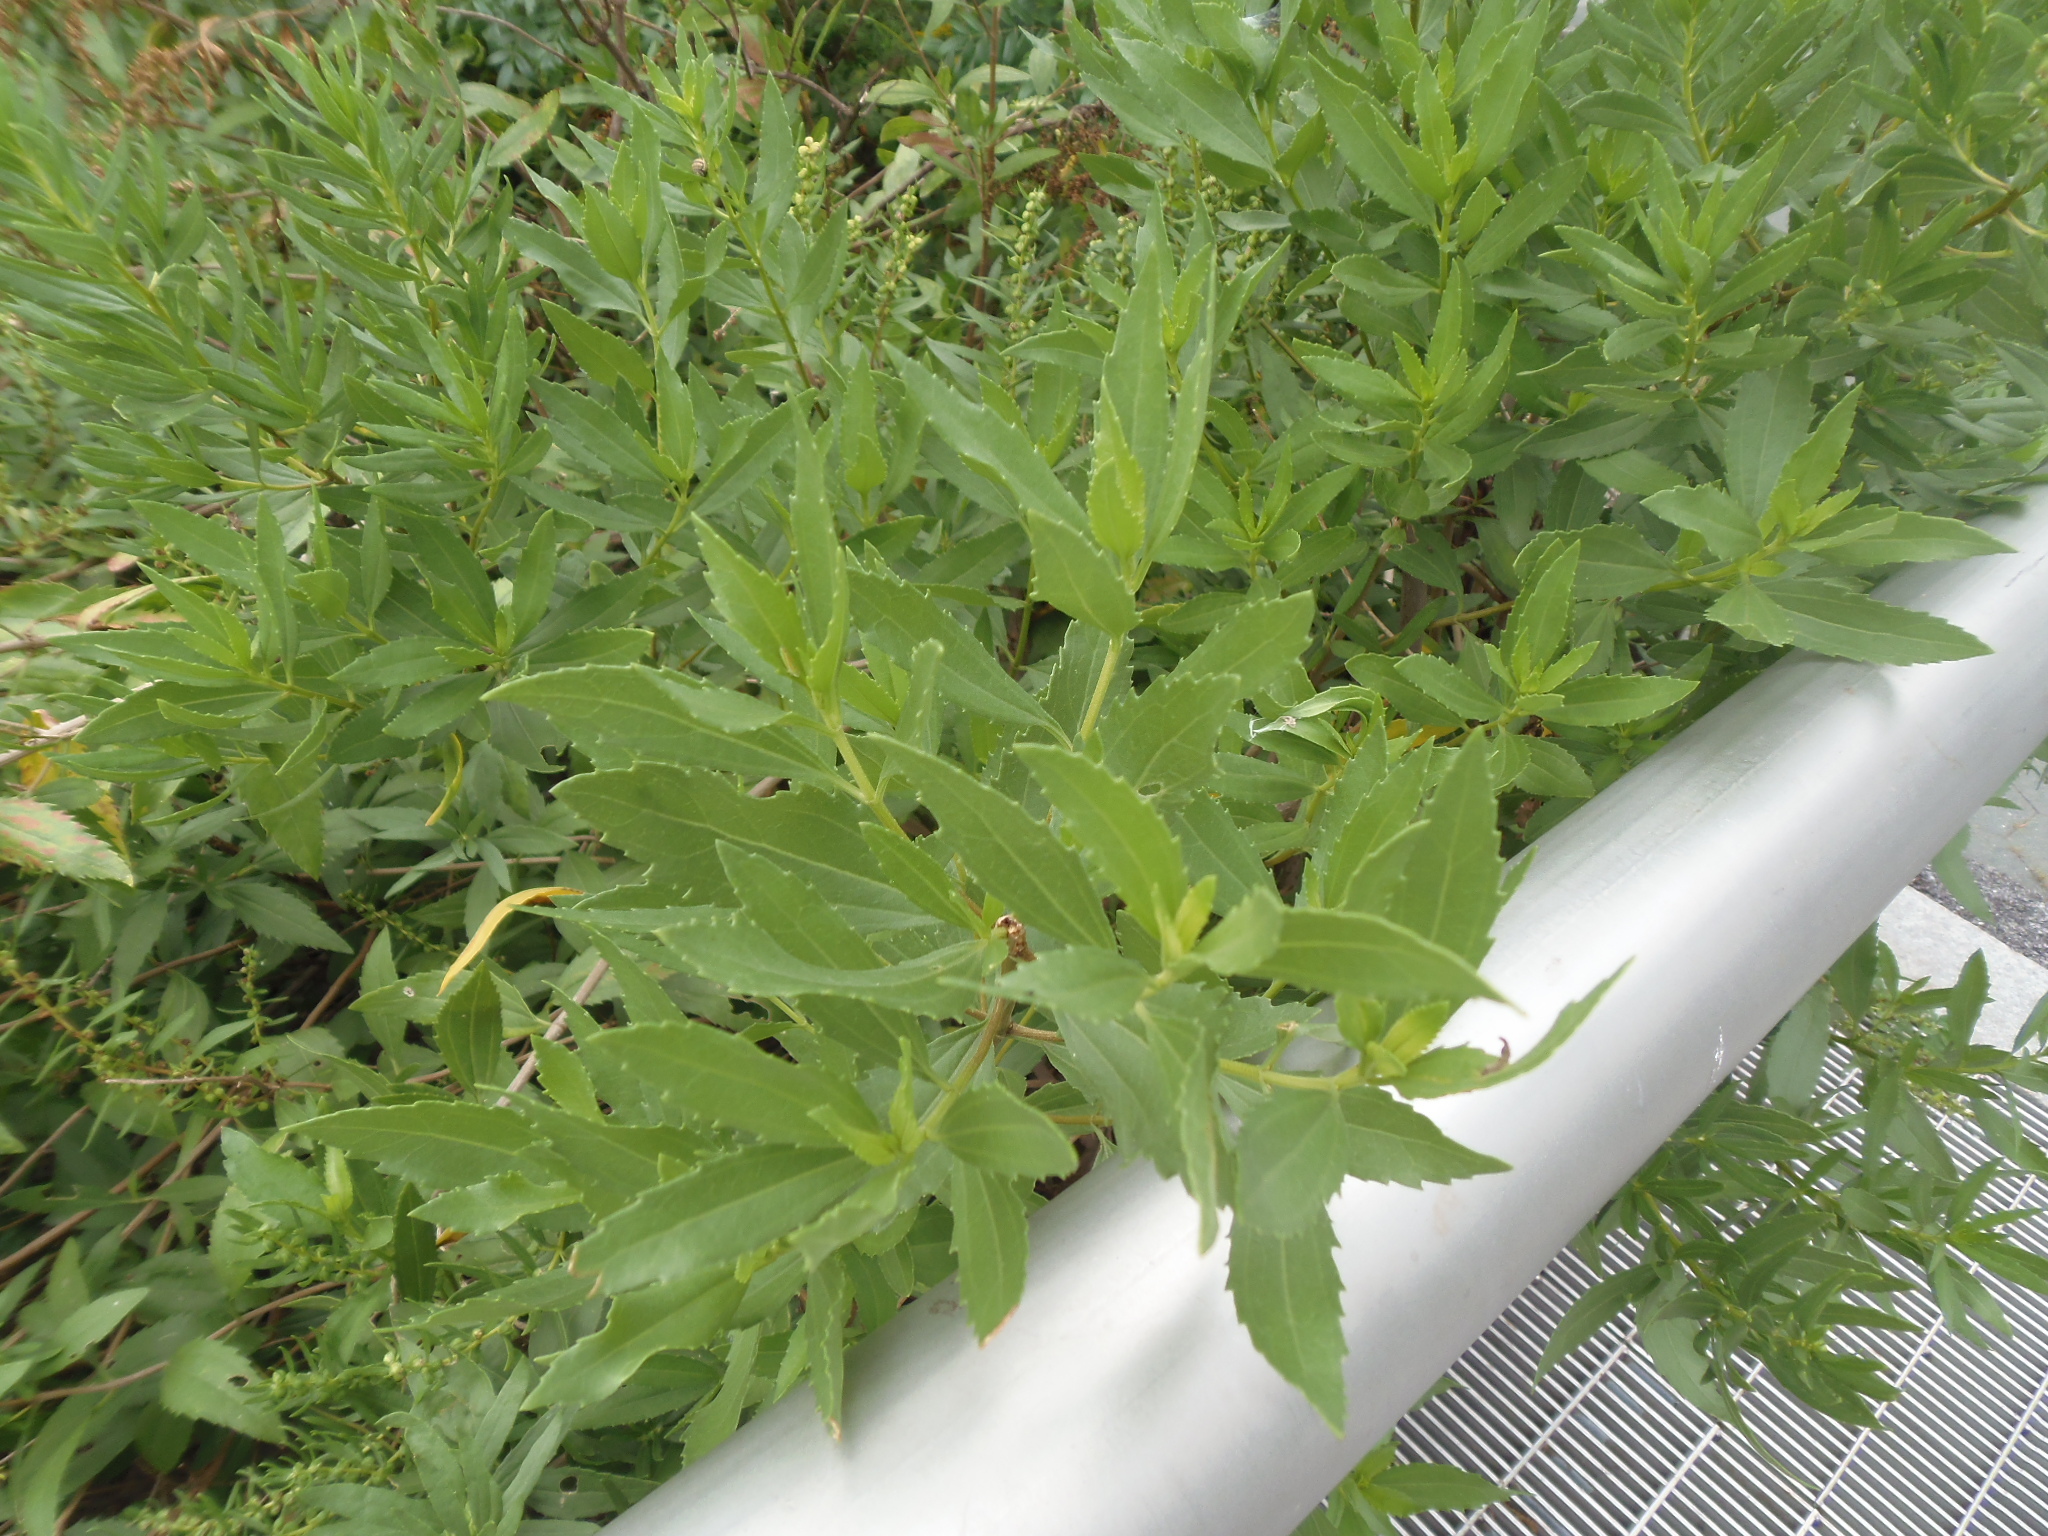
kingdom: Plantae
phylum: Tracheophyta
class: Magnoliopsida
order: Asterales
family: Asteraceae
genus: Iva
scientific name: Iva frutescens
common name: Big-leaved marsh-elder
